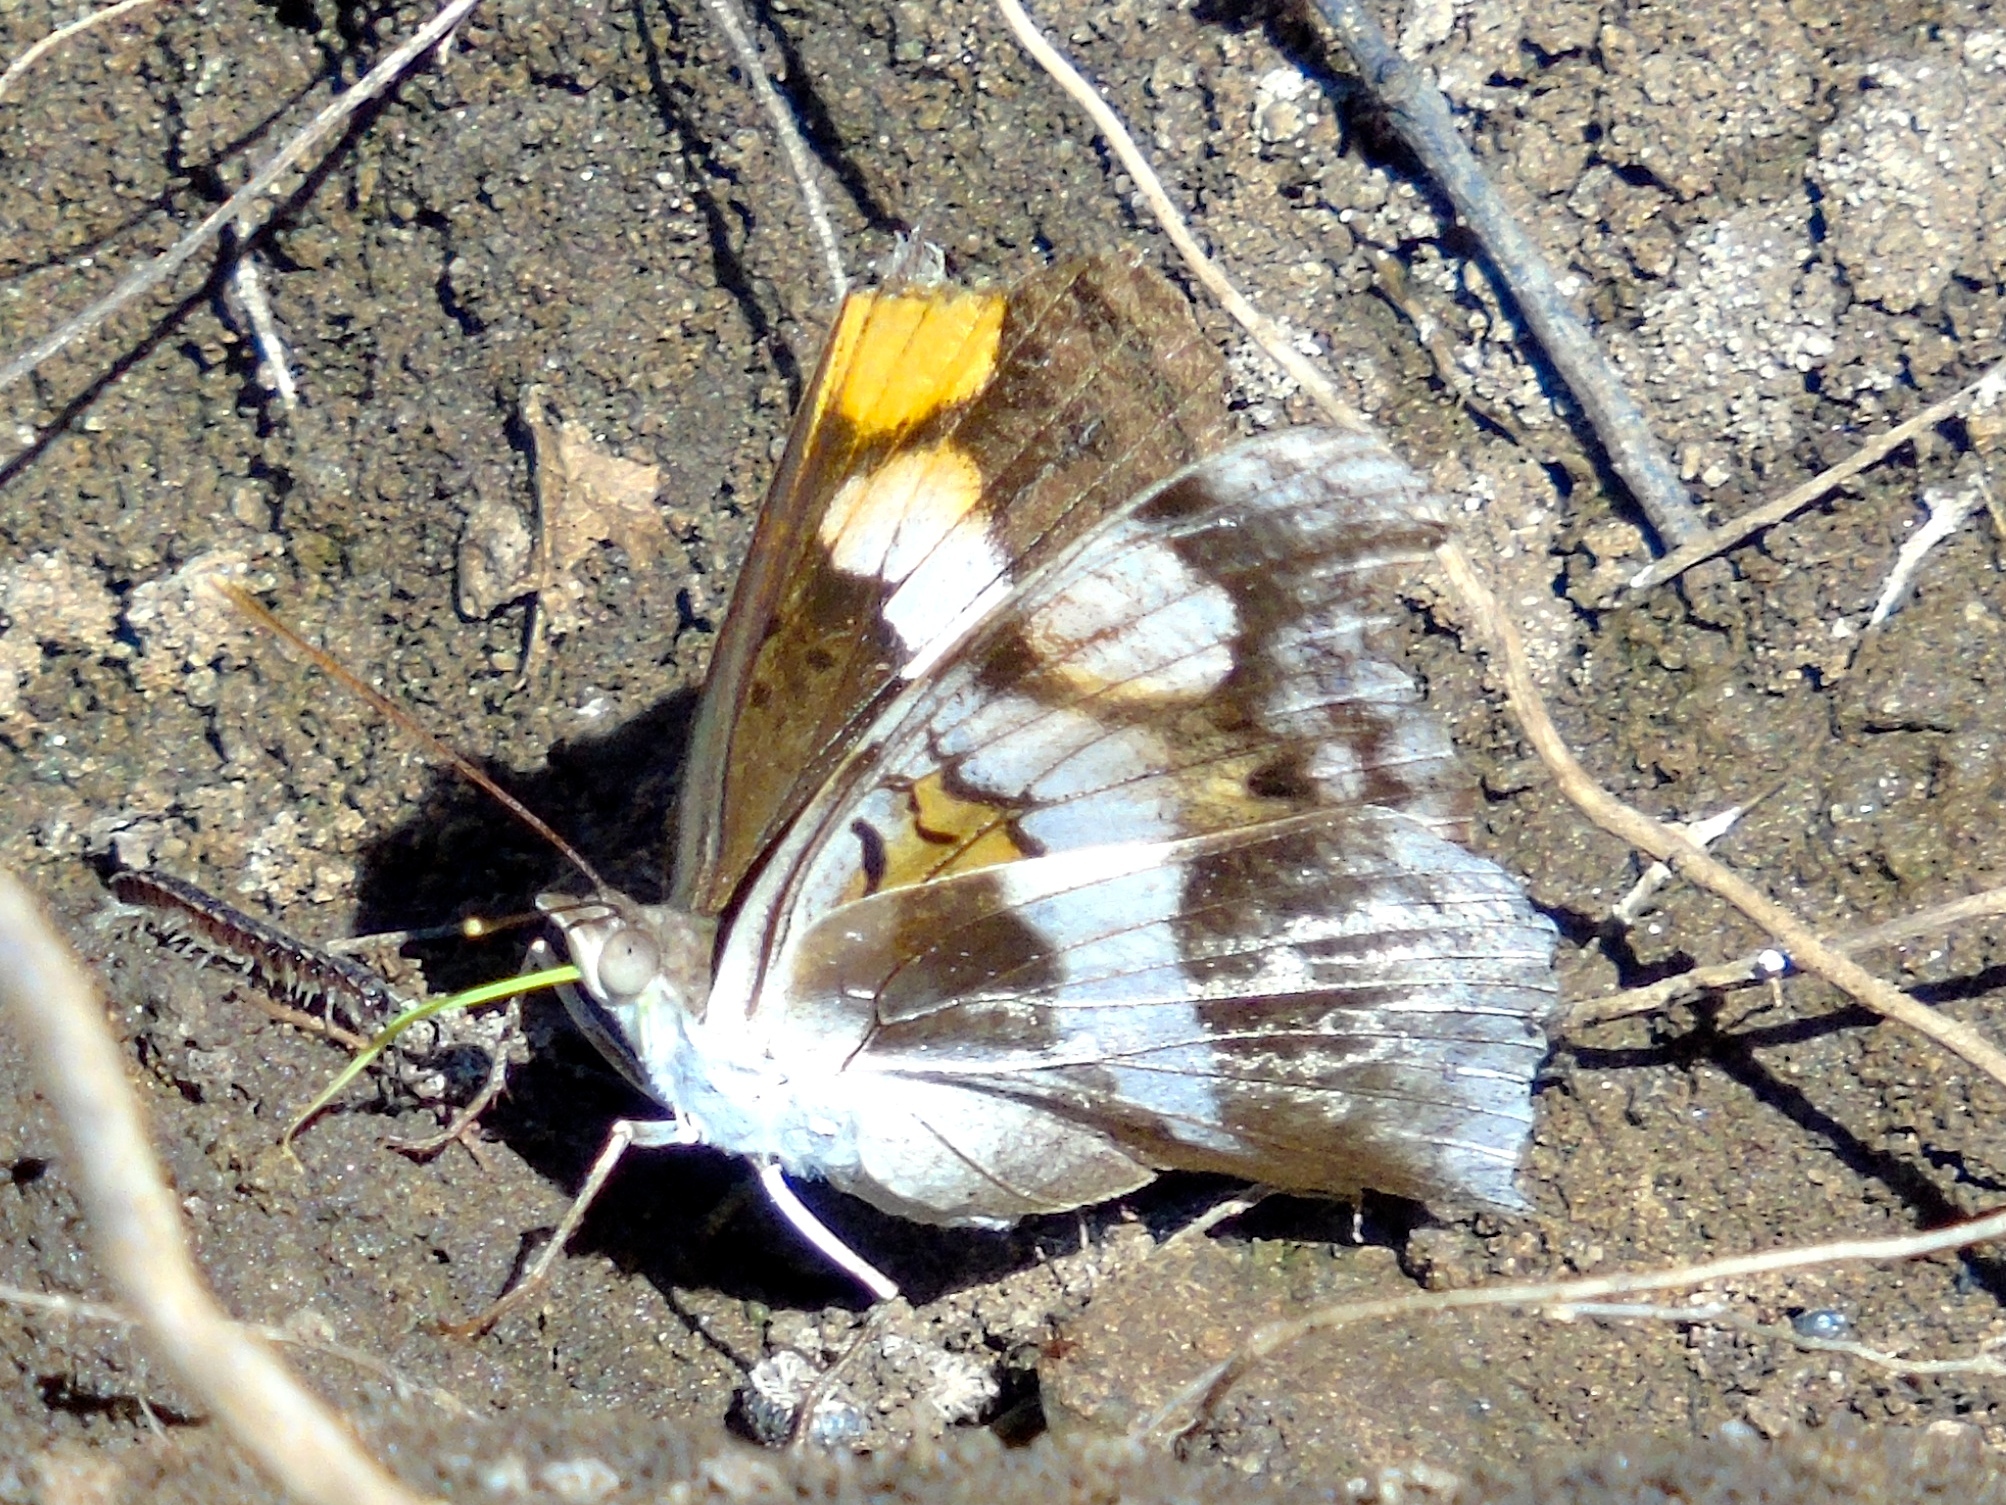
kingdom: Animalia
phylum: Arthropoda
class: Insecta
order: Lepidoptera
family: Nymphalidae
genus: Doxocopa
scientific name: Doxocopa laure
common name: Silver emperor
